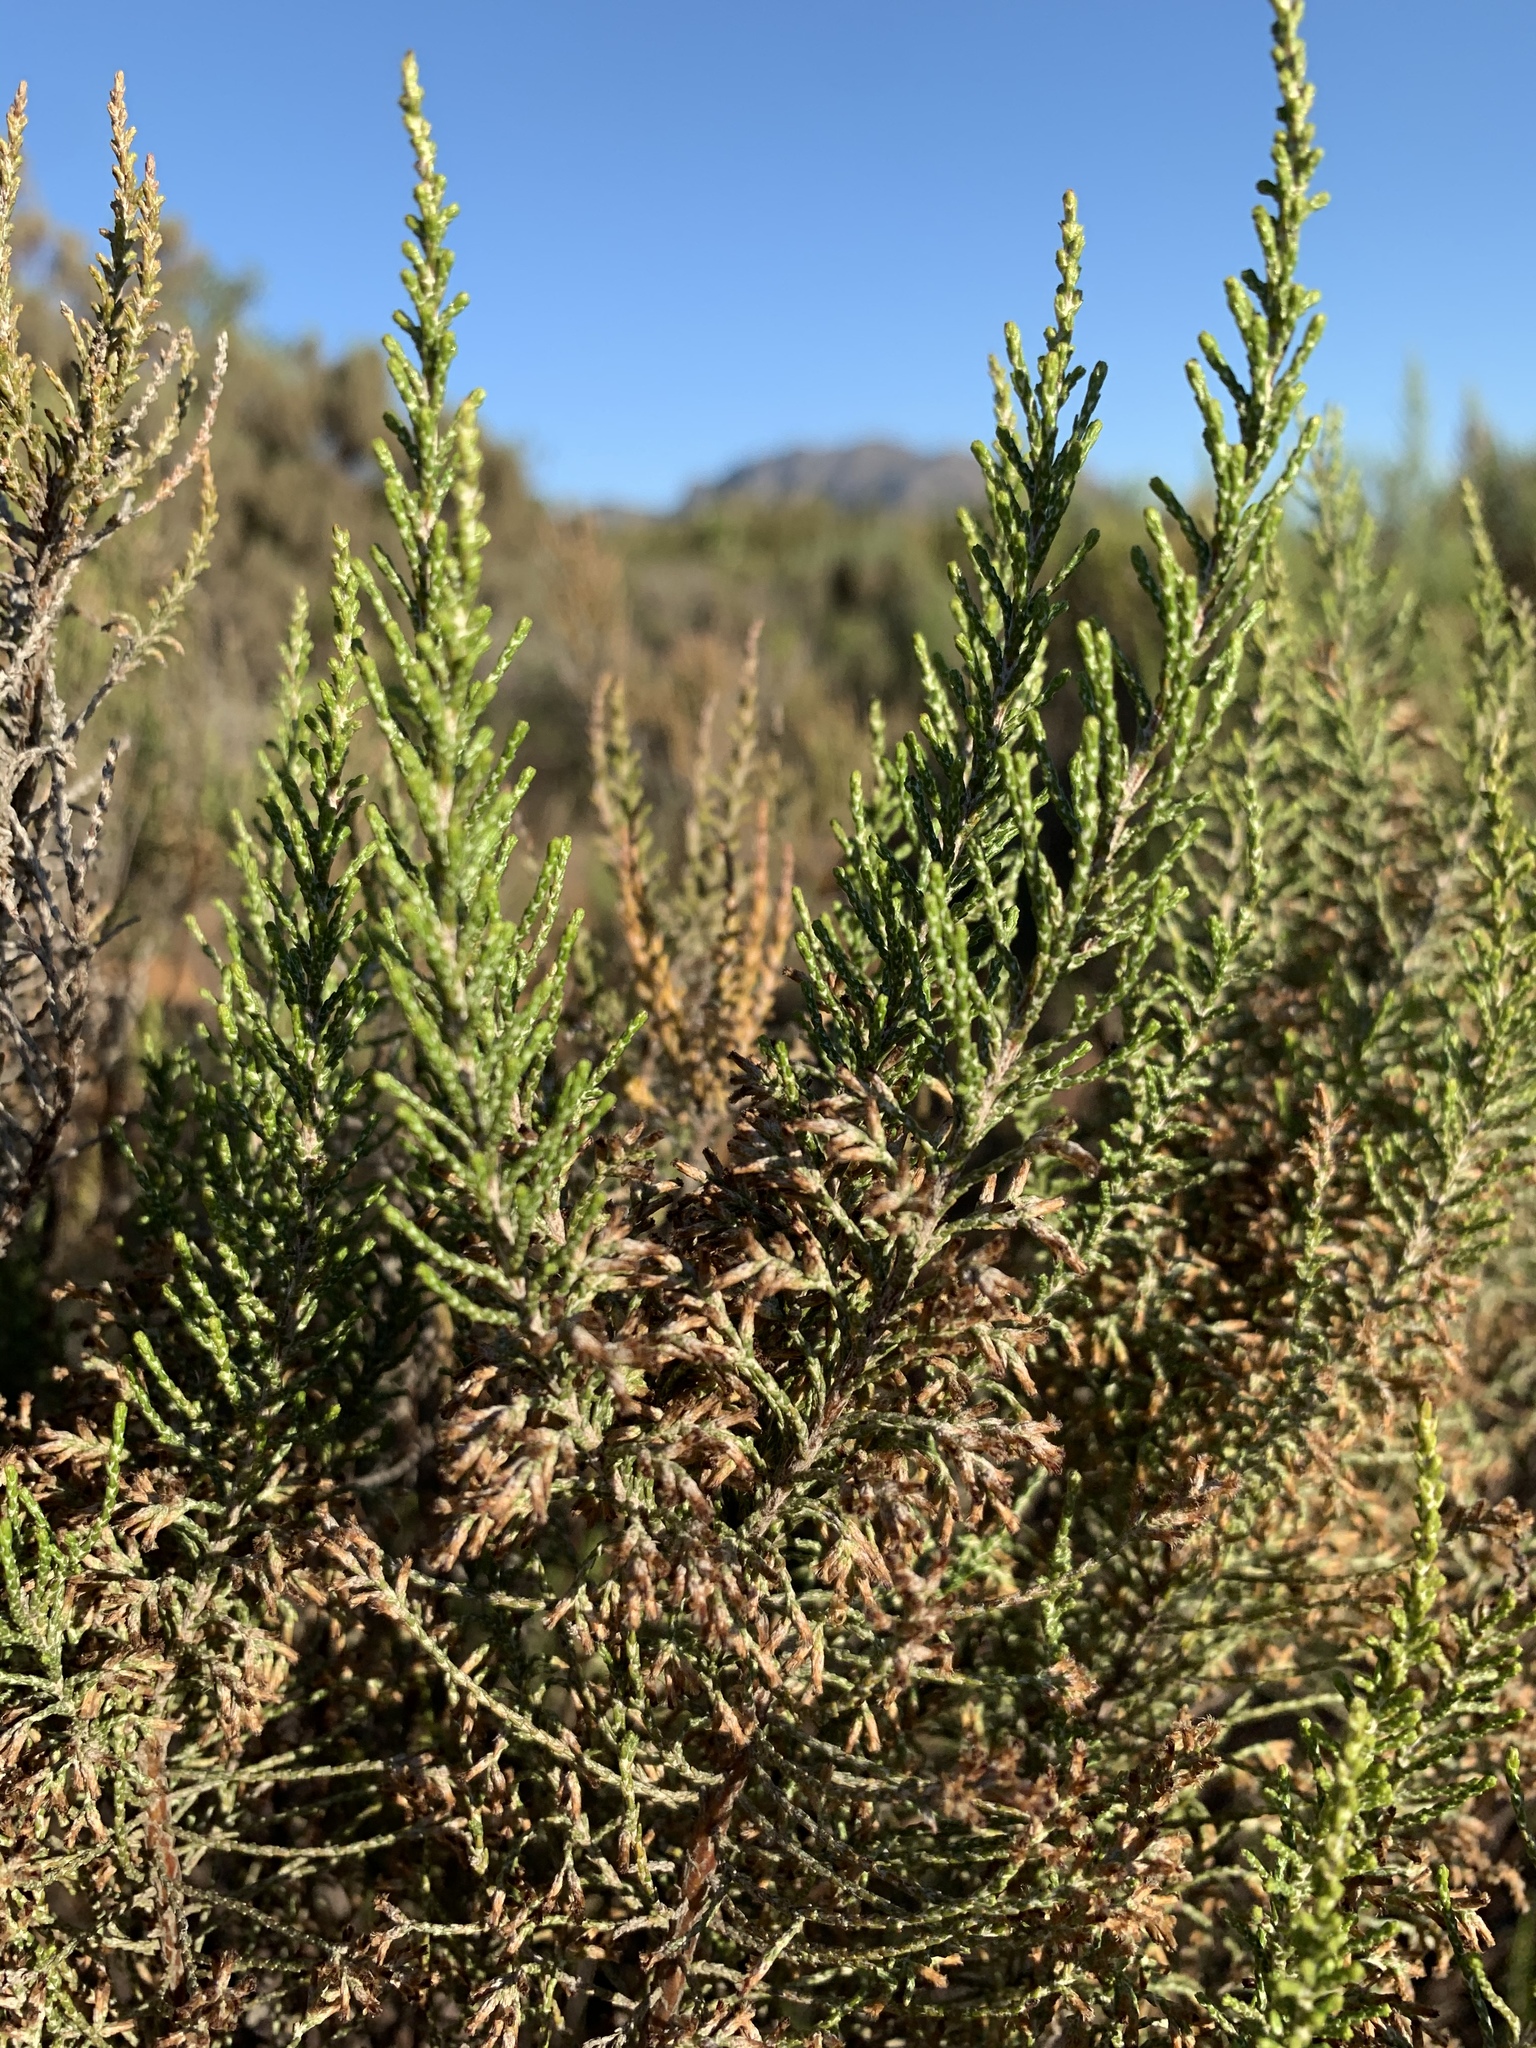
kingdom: Plantae
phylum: Tracheophyta
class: Magnoliopsida
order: Asterales
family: Asteraceae
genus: Dicerothamnus
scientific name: Dicerothamnus rhinocerotis
